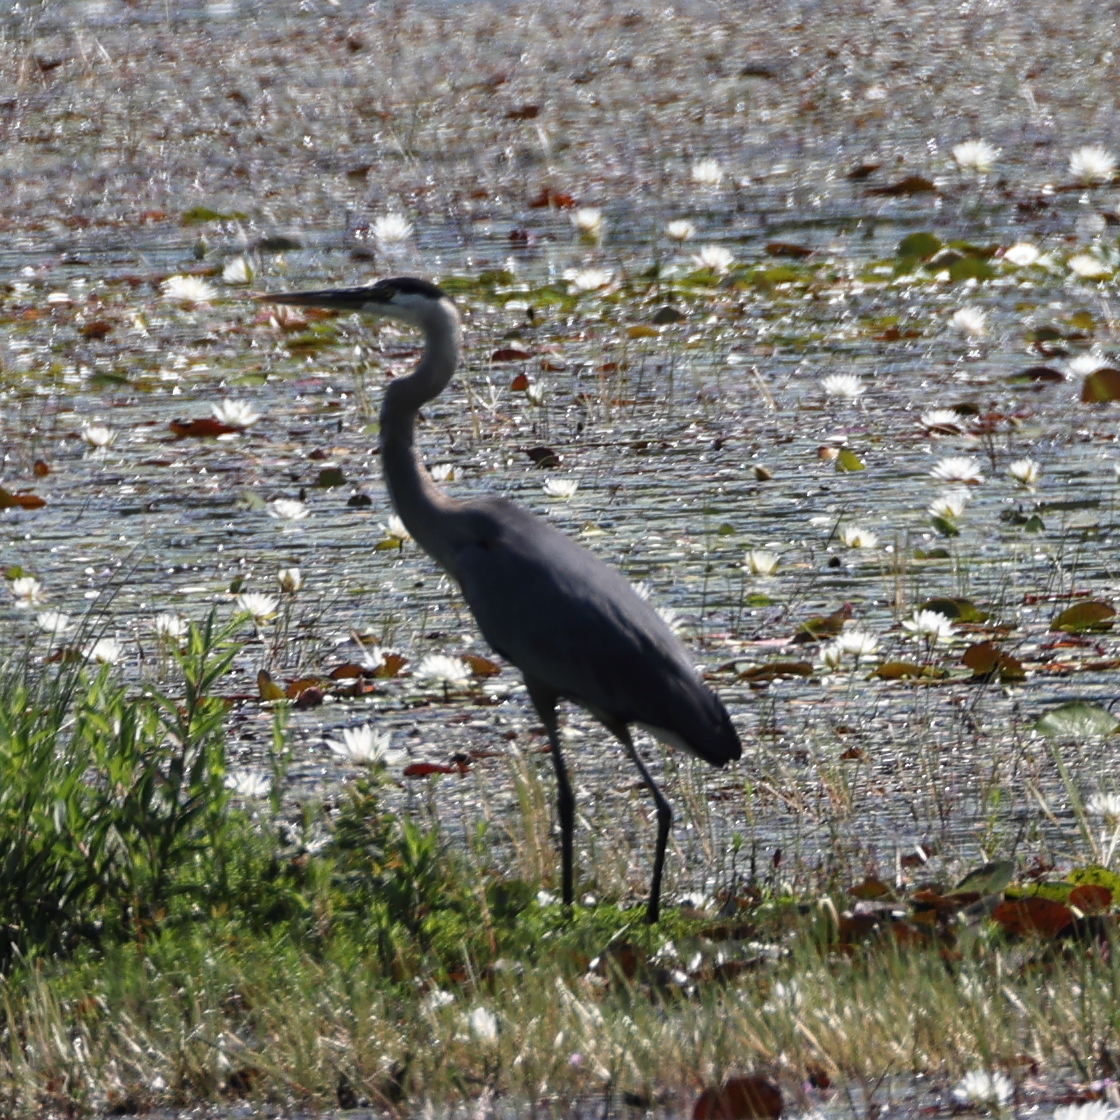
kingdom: Animalia
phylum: Chordata
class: Aves
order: Pelecaniformes
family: Ardeidae
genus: Ardea
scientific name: Ardea herodias
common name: Great blue heron
